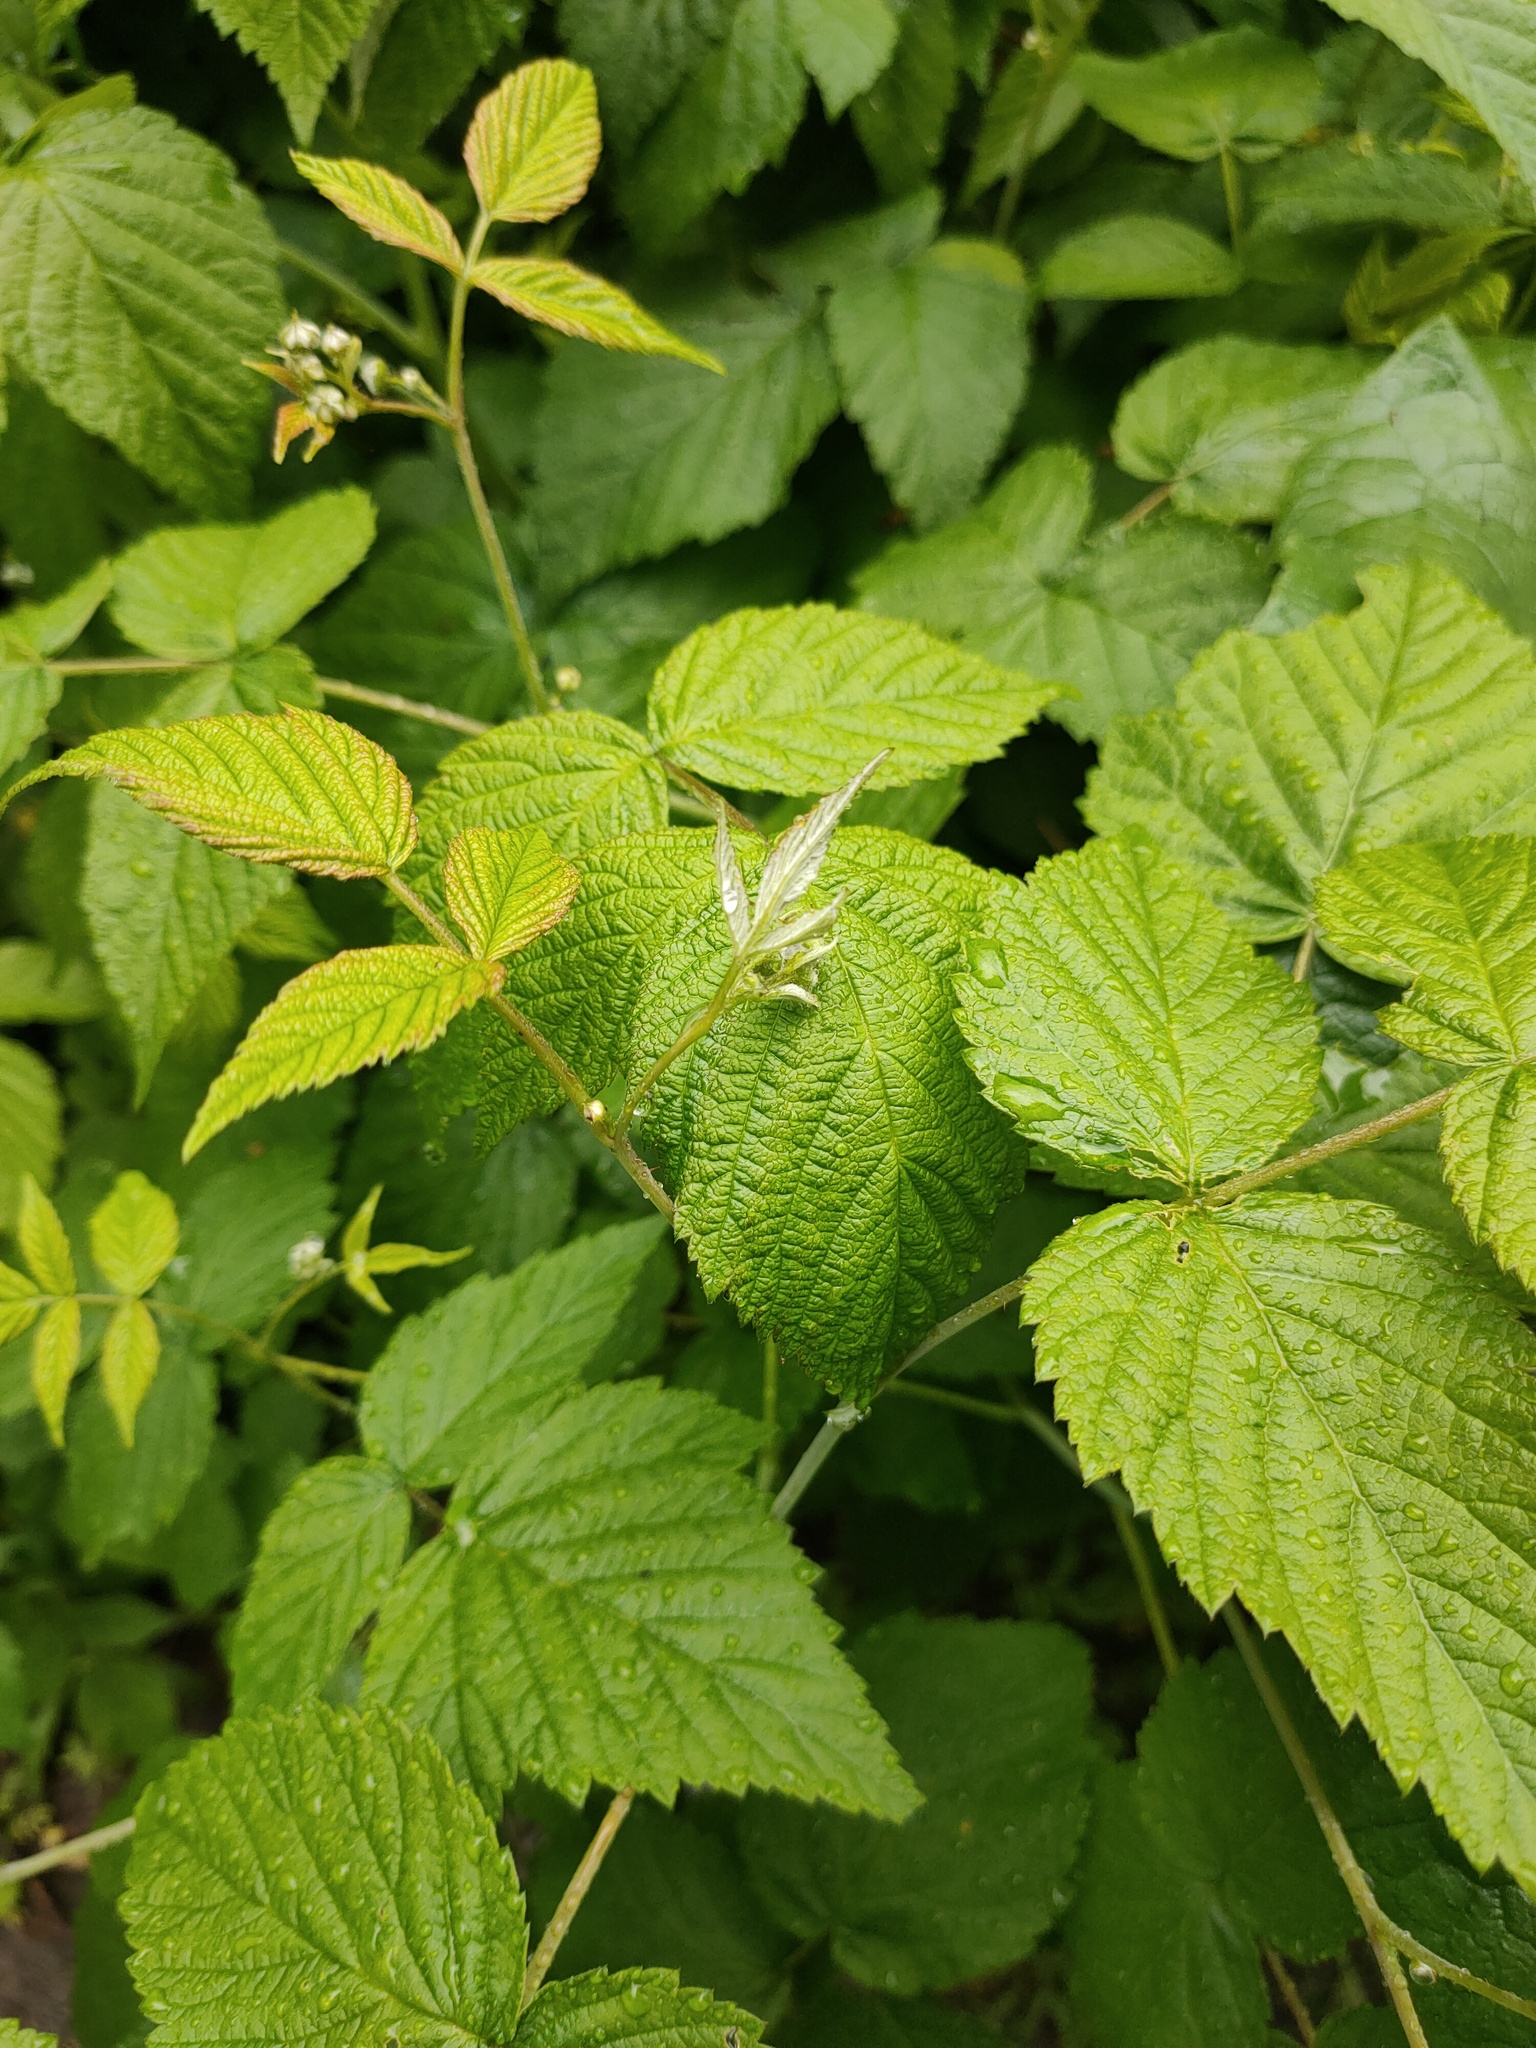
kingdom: Plantae
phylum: Tracheophyta
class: Magnoliopsida
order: Rosales
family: Rosaceae
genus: Rubus
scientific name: Rubus idaeus
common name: Raspberry
